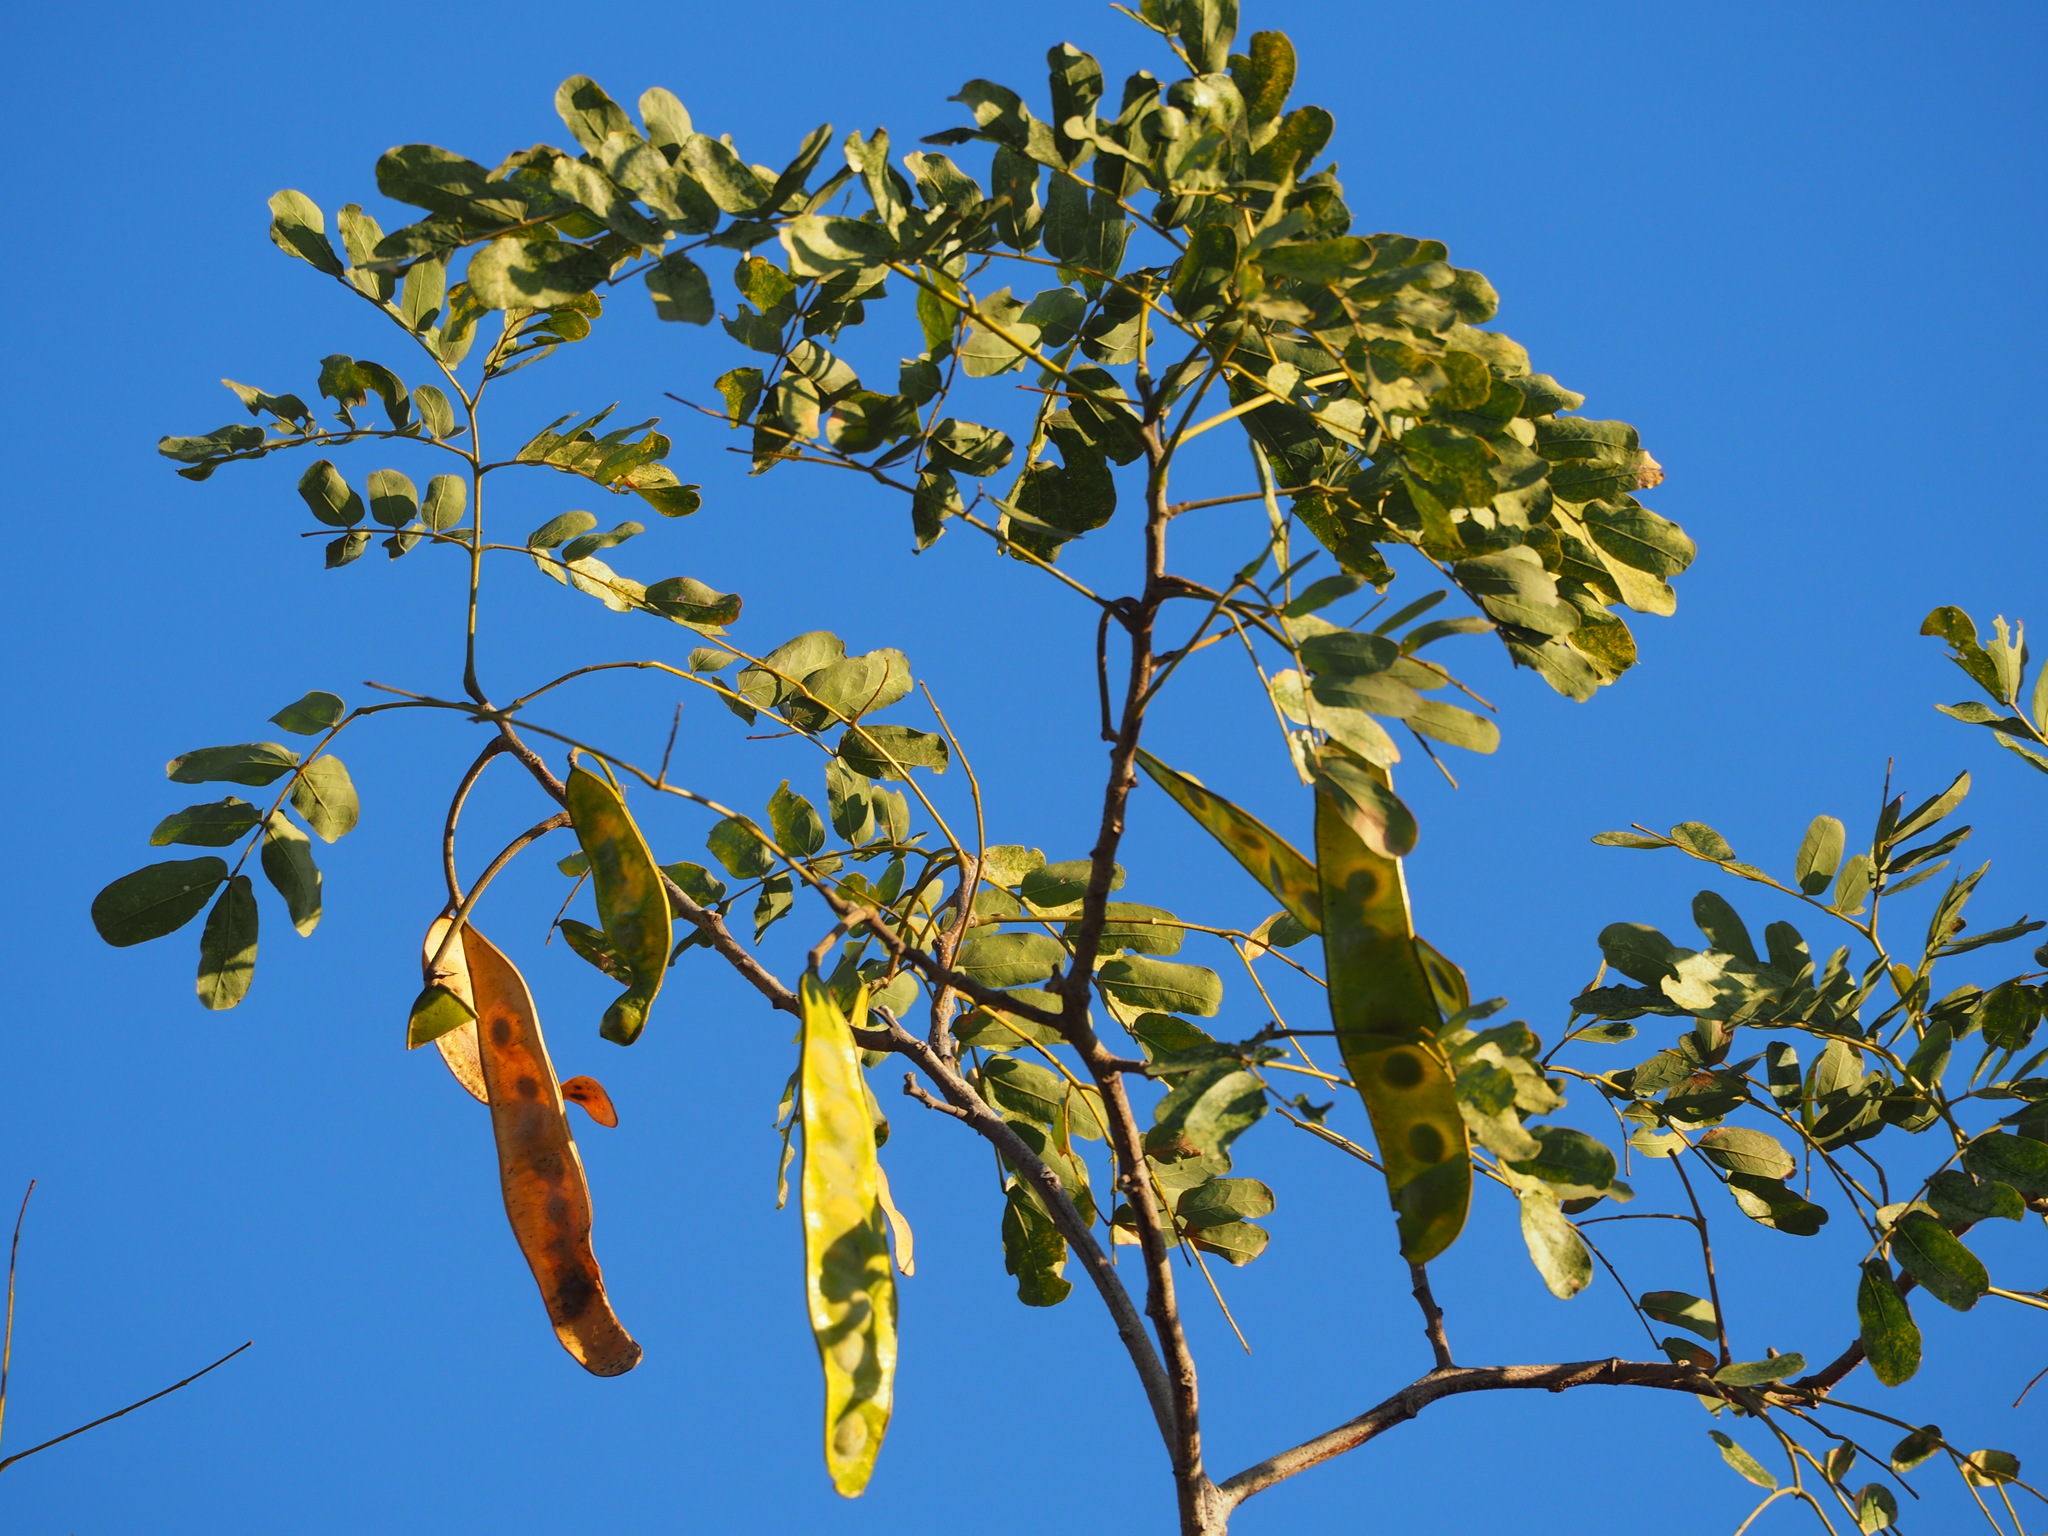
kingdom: Plantae
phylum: Tracheophyta
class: Magnoliopsida
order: Fabales
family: Fabaceae
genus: Albizia
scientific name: Albizia lebbeck
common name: Woman's tongue
